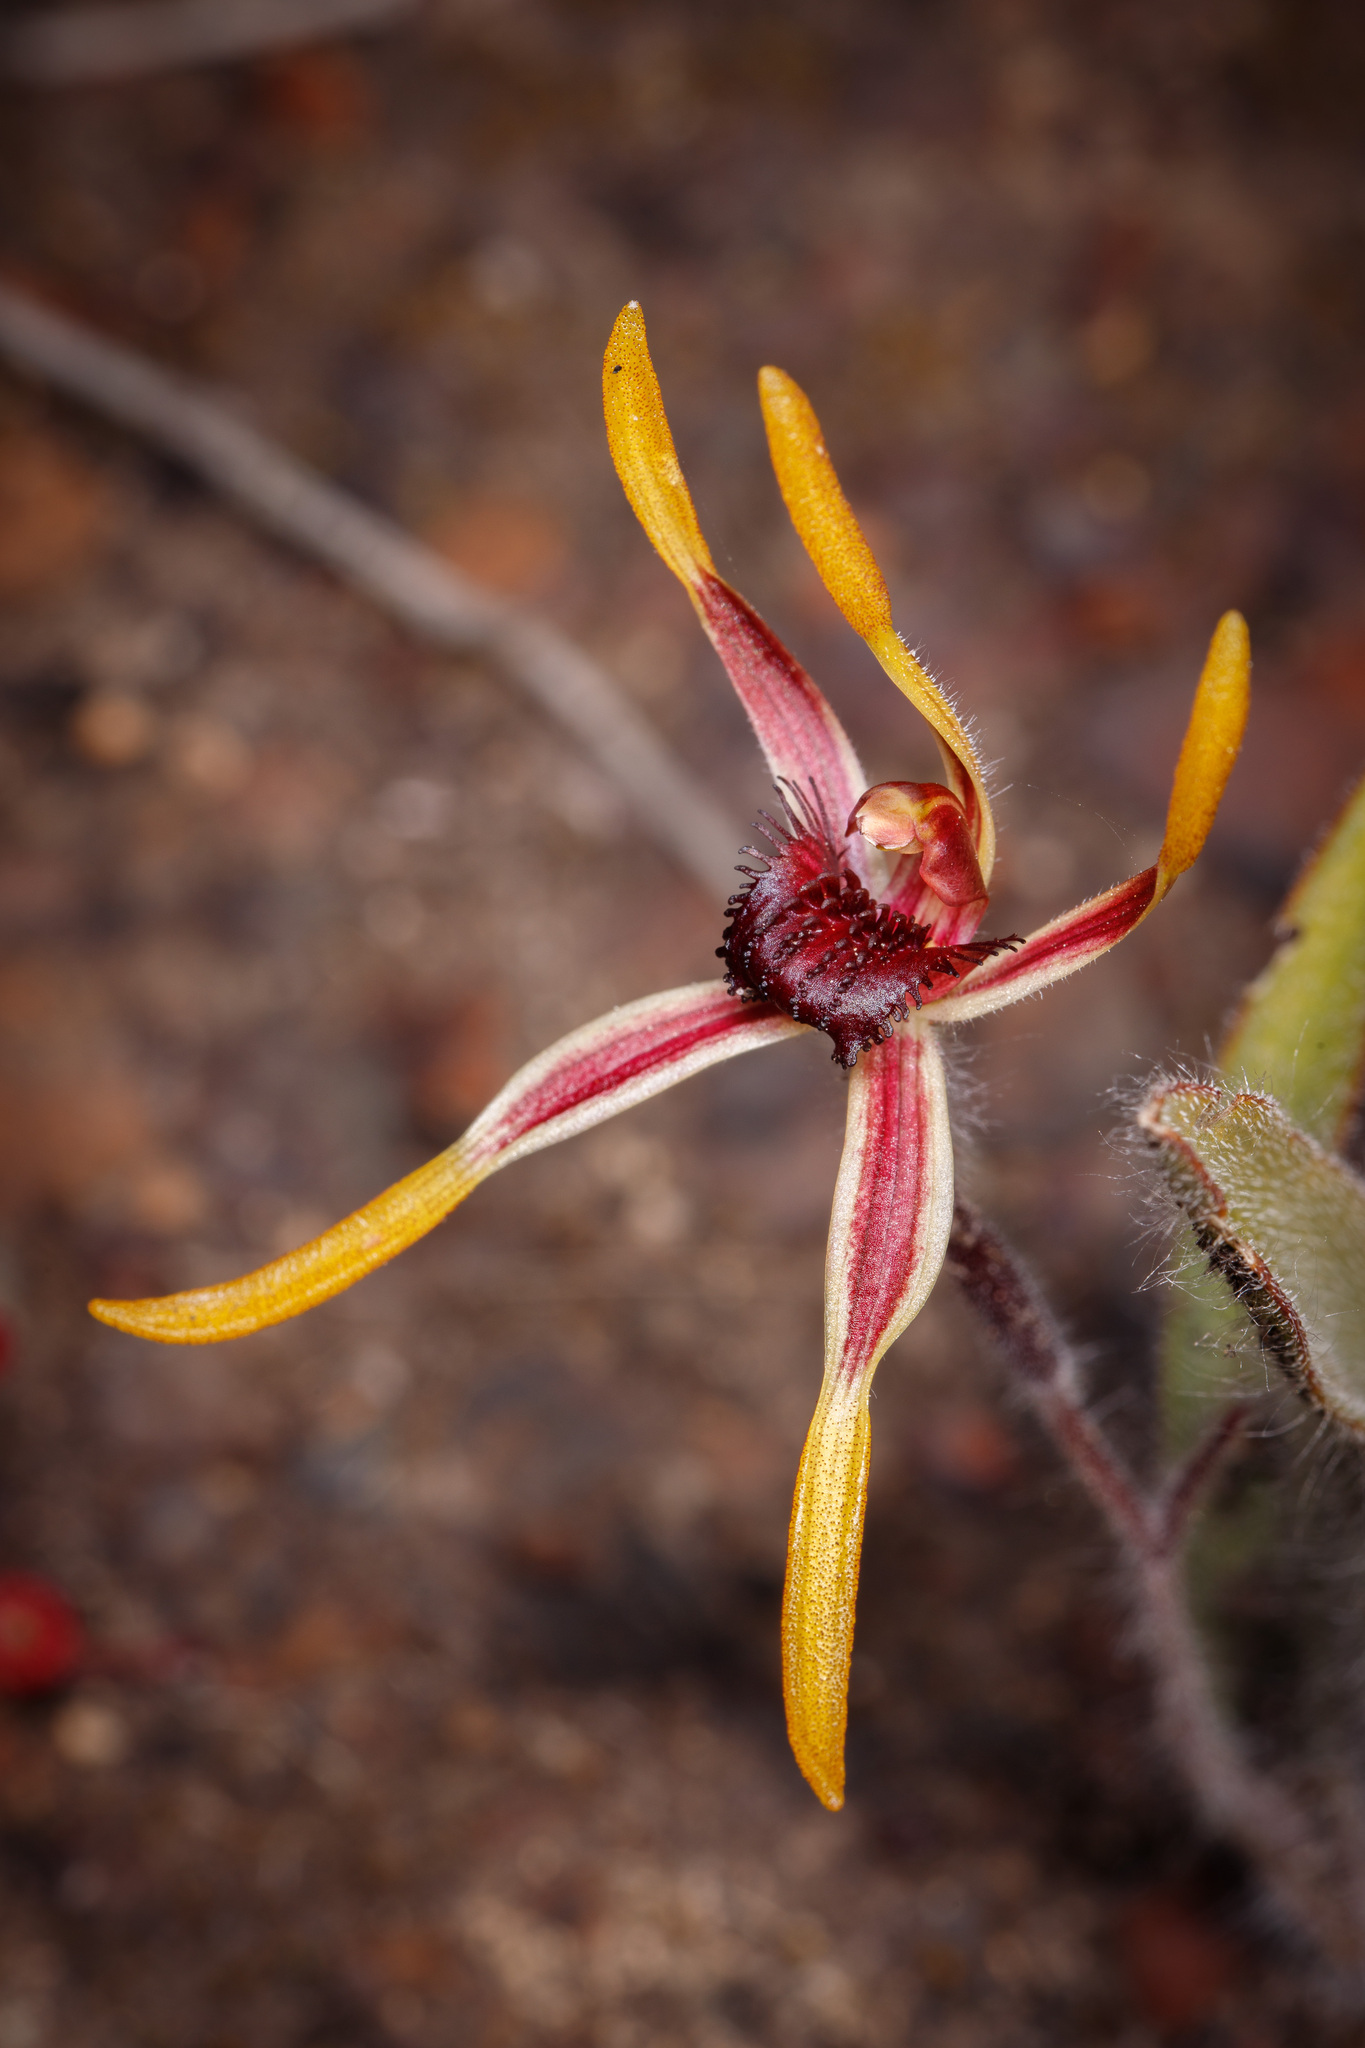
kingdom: Plantae
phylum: Tracheophyta
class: Liliopsida
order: Asparagales
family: Orchidaceae
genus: Caladenia
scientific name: Caladenia arrecta
